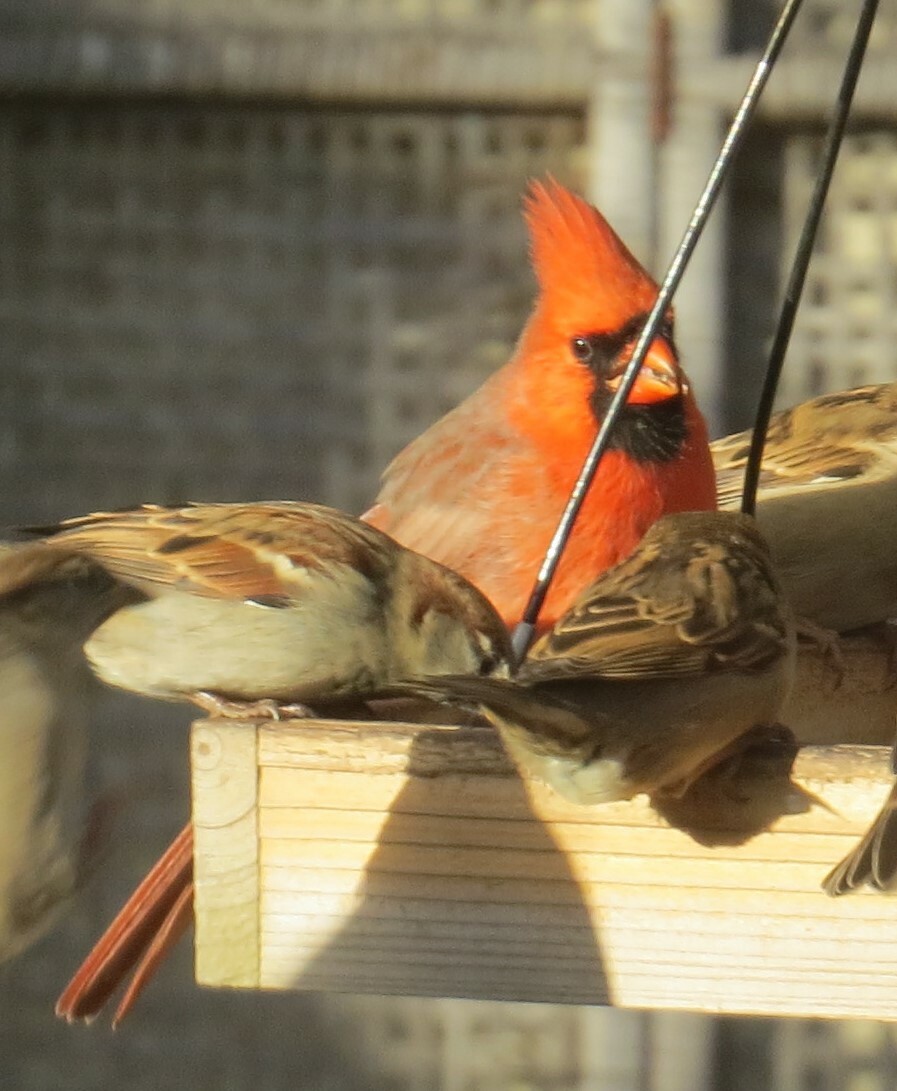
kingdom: Animalia
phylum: Chordata
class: Aves
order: Passeriformes
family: Cardinalidae
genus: Cardinalis
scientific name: Cardinalis cardinalis
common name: Northern cardinal
